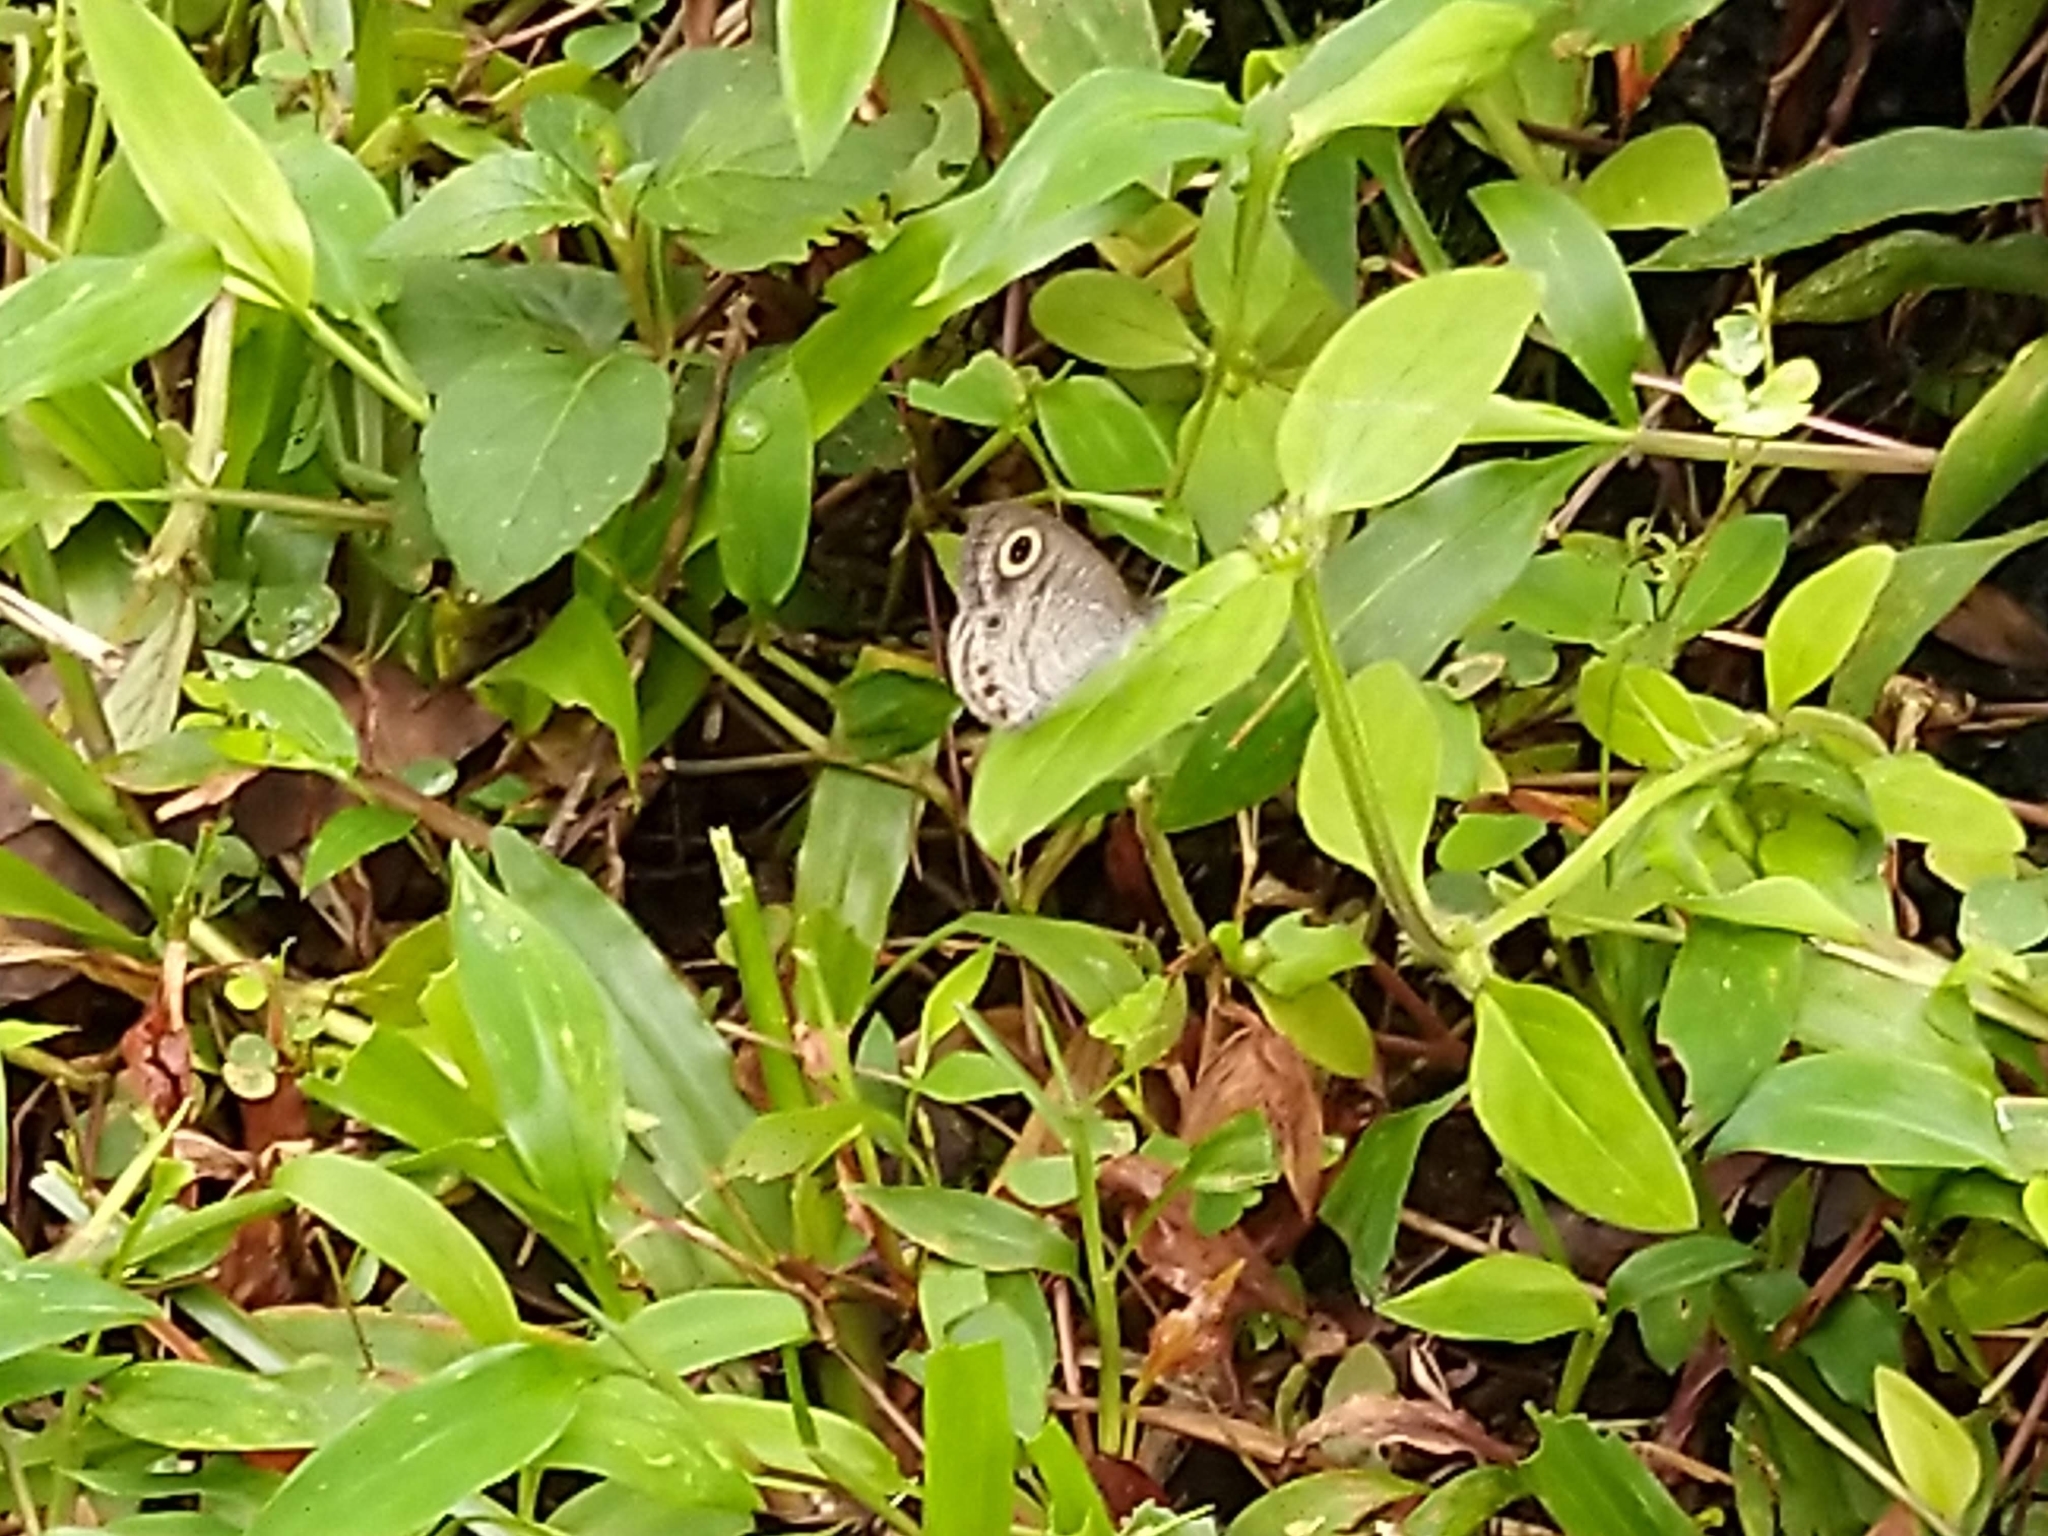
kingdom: Animalia
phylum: Arthropoda
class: Insecta
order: Lepidoptera
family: Nymphalidae
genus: Ypthima
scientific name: Ypthima huebneri
